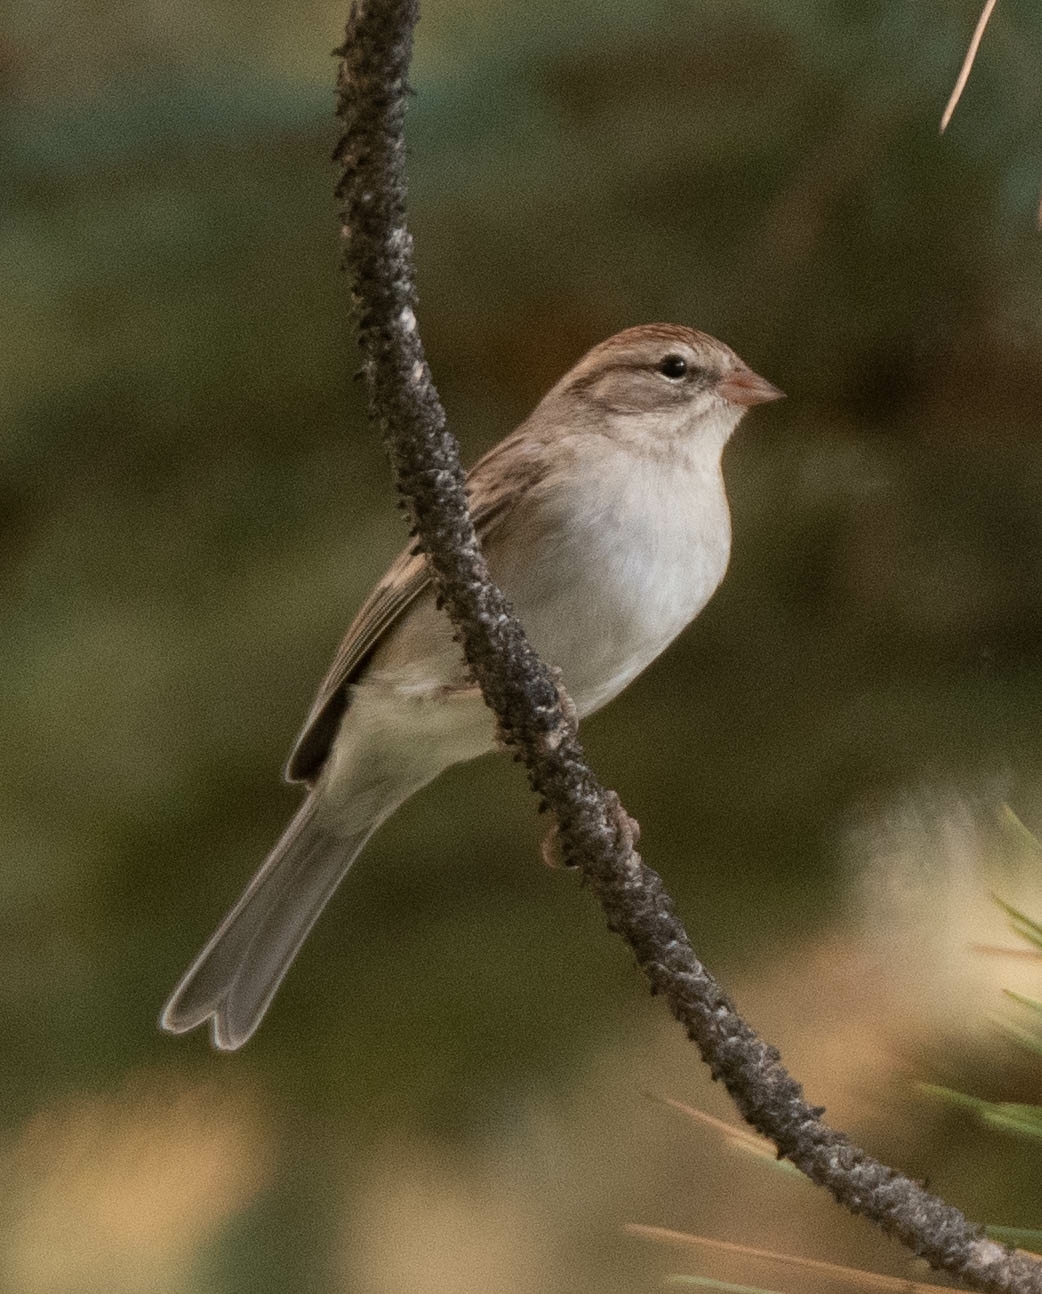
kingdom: Animalia
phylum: Chordata
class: Aves
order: Passeriformes
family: Passerellidae
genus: Spizella
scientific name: Spizella passerina
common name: Chipping sparrow
